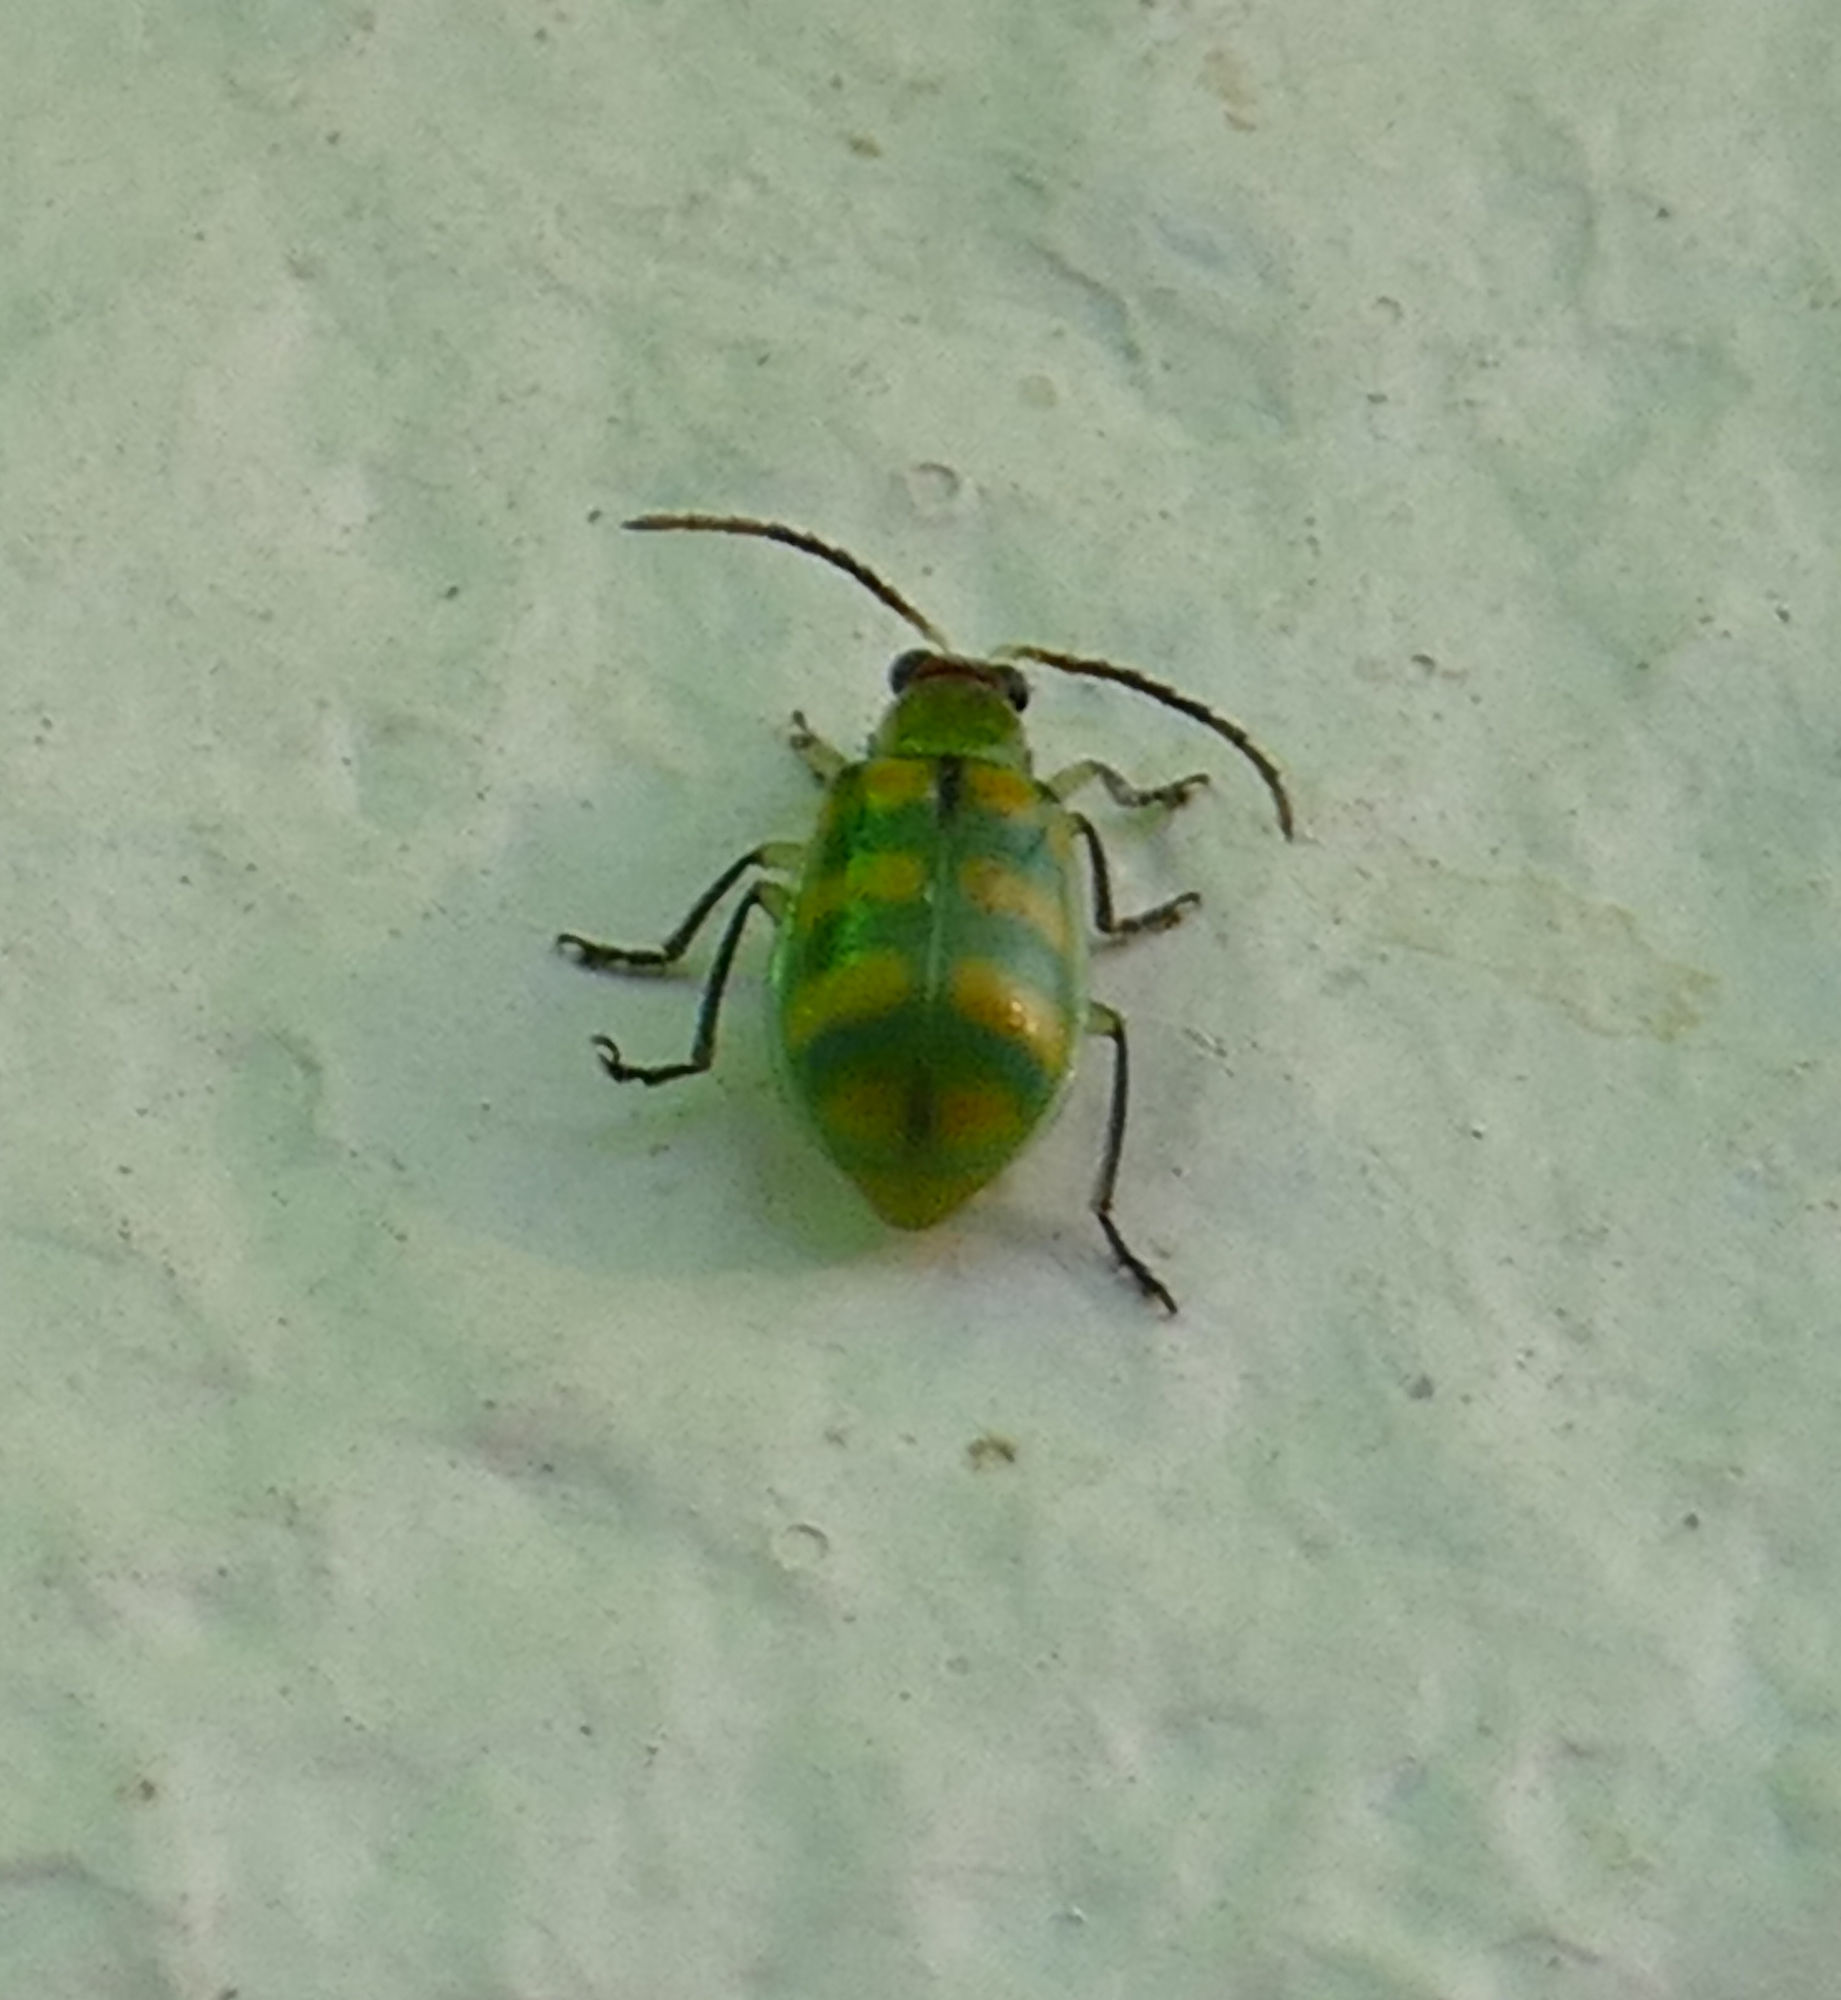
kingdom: Animalia
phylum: Arthropoda
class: Insecta
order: Coleoptera
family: Chrysomelidae
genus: Diabrotica
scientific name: Diabrotica balteata
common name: Leaf beetle
